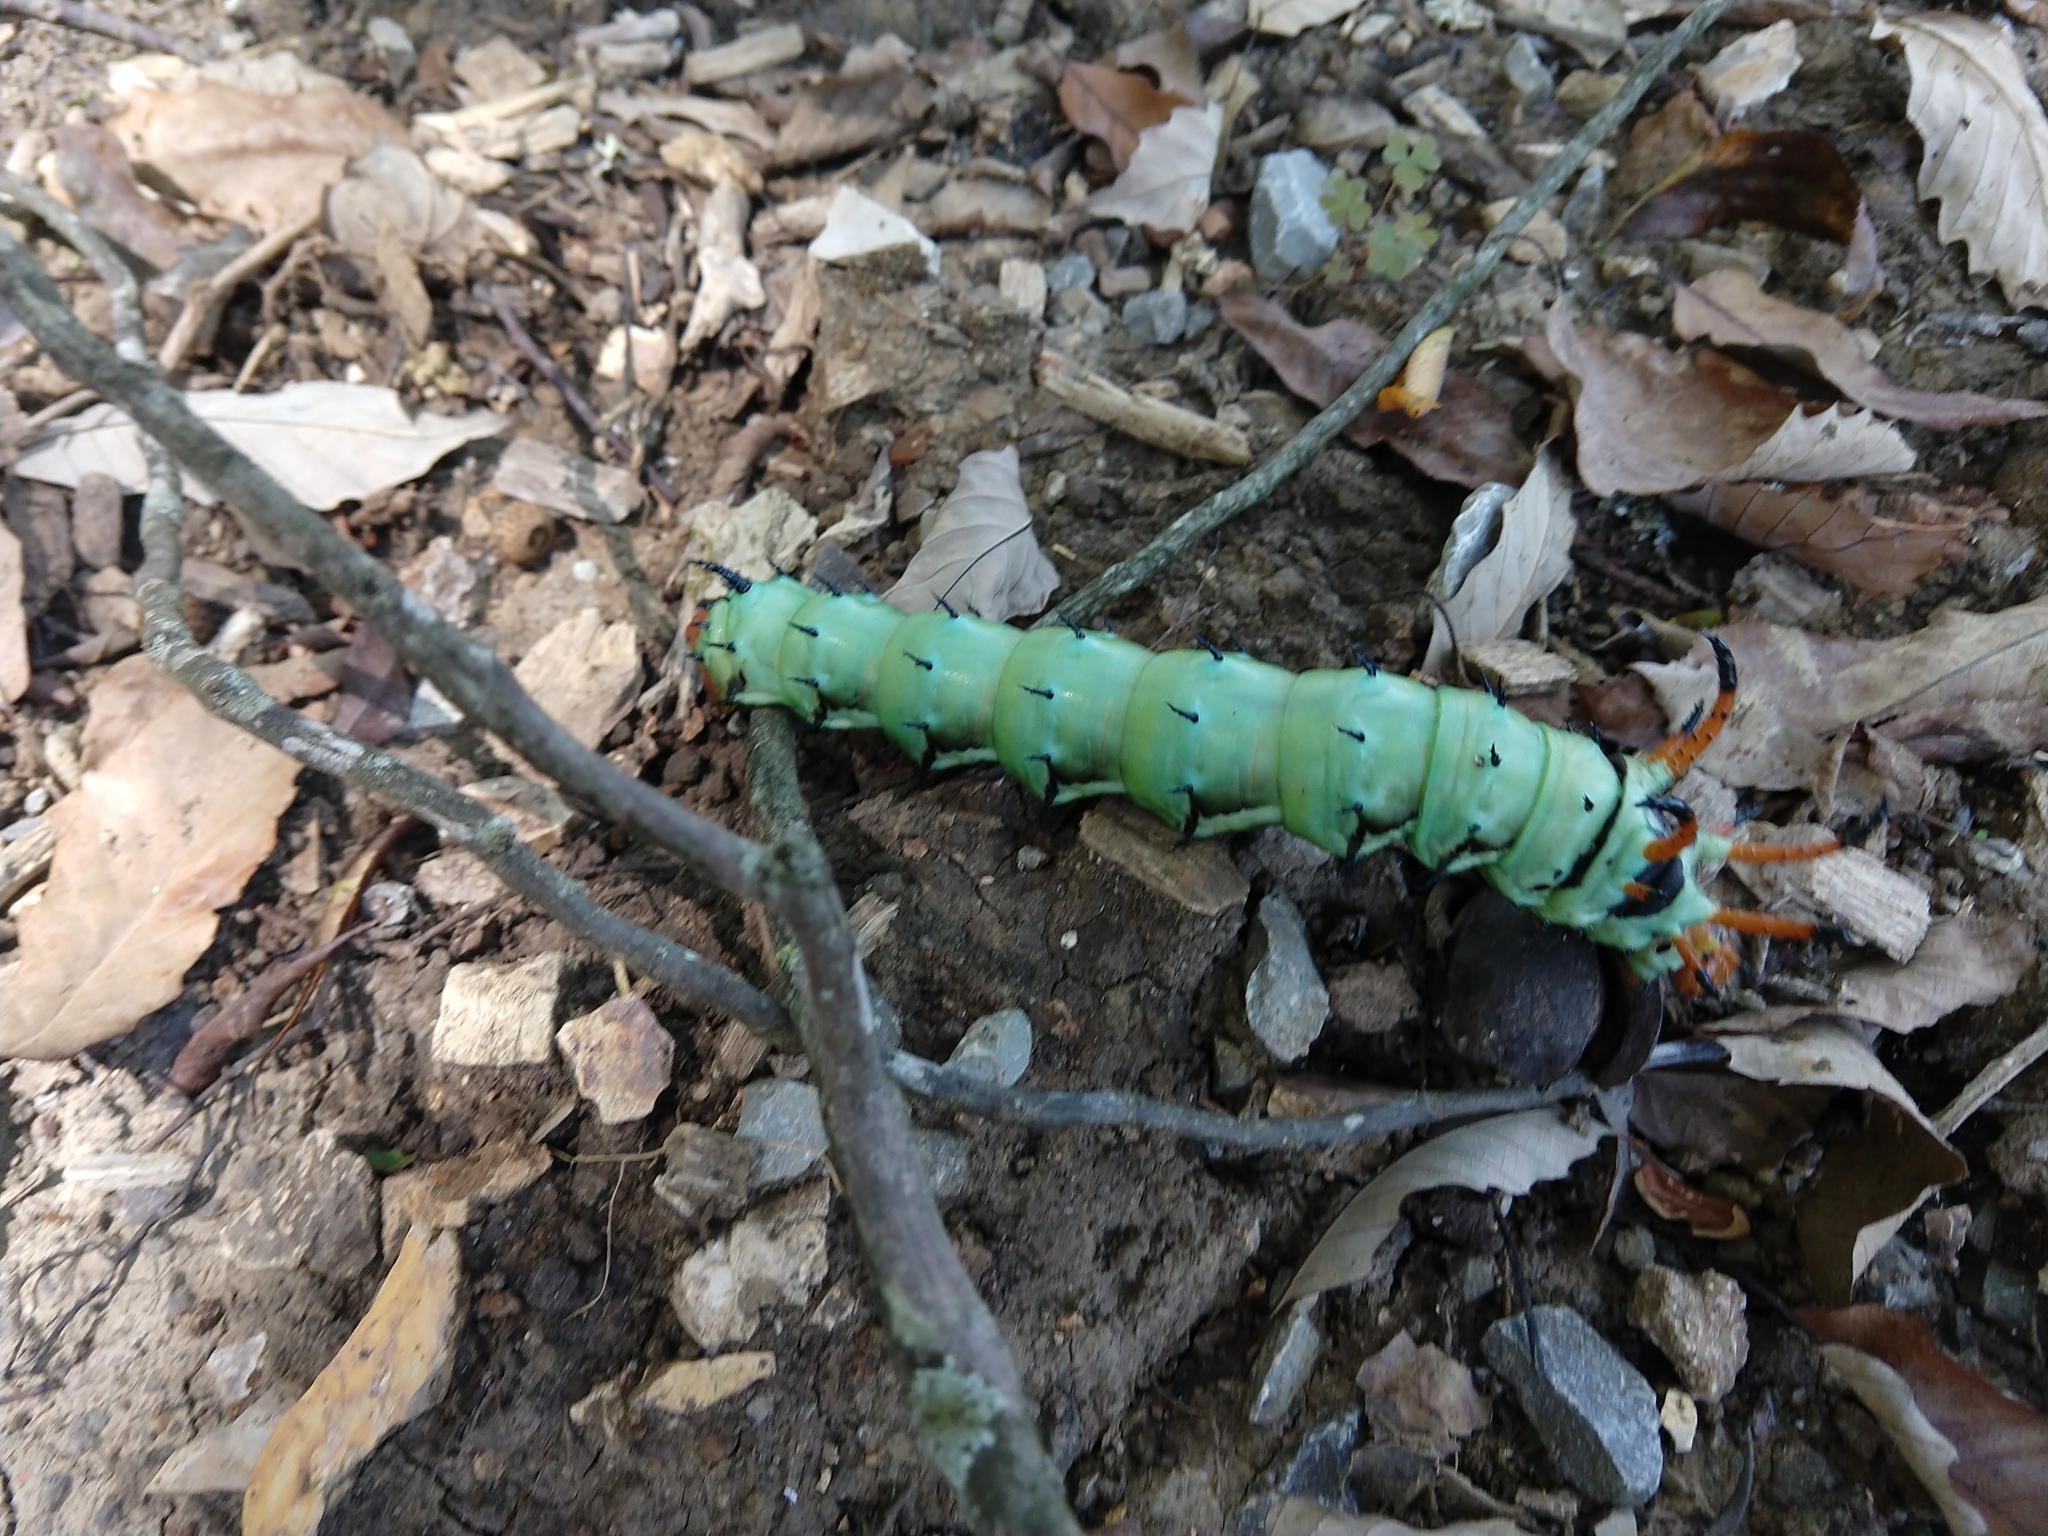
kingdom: Animalia
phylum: Arthropoda
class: Insecta
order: Lepidoptera
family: Saturniidae
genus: Citheronia
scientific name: Citheronia regalis
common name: Hickory horned devil
